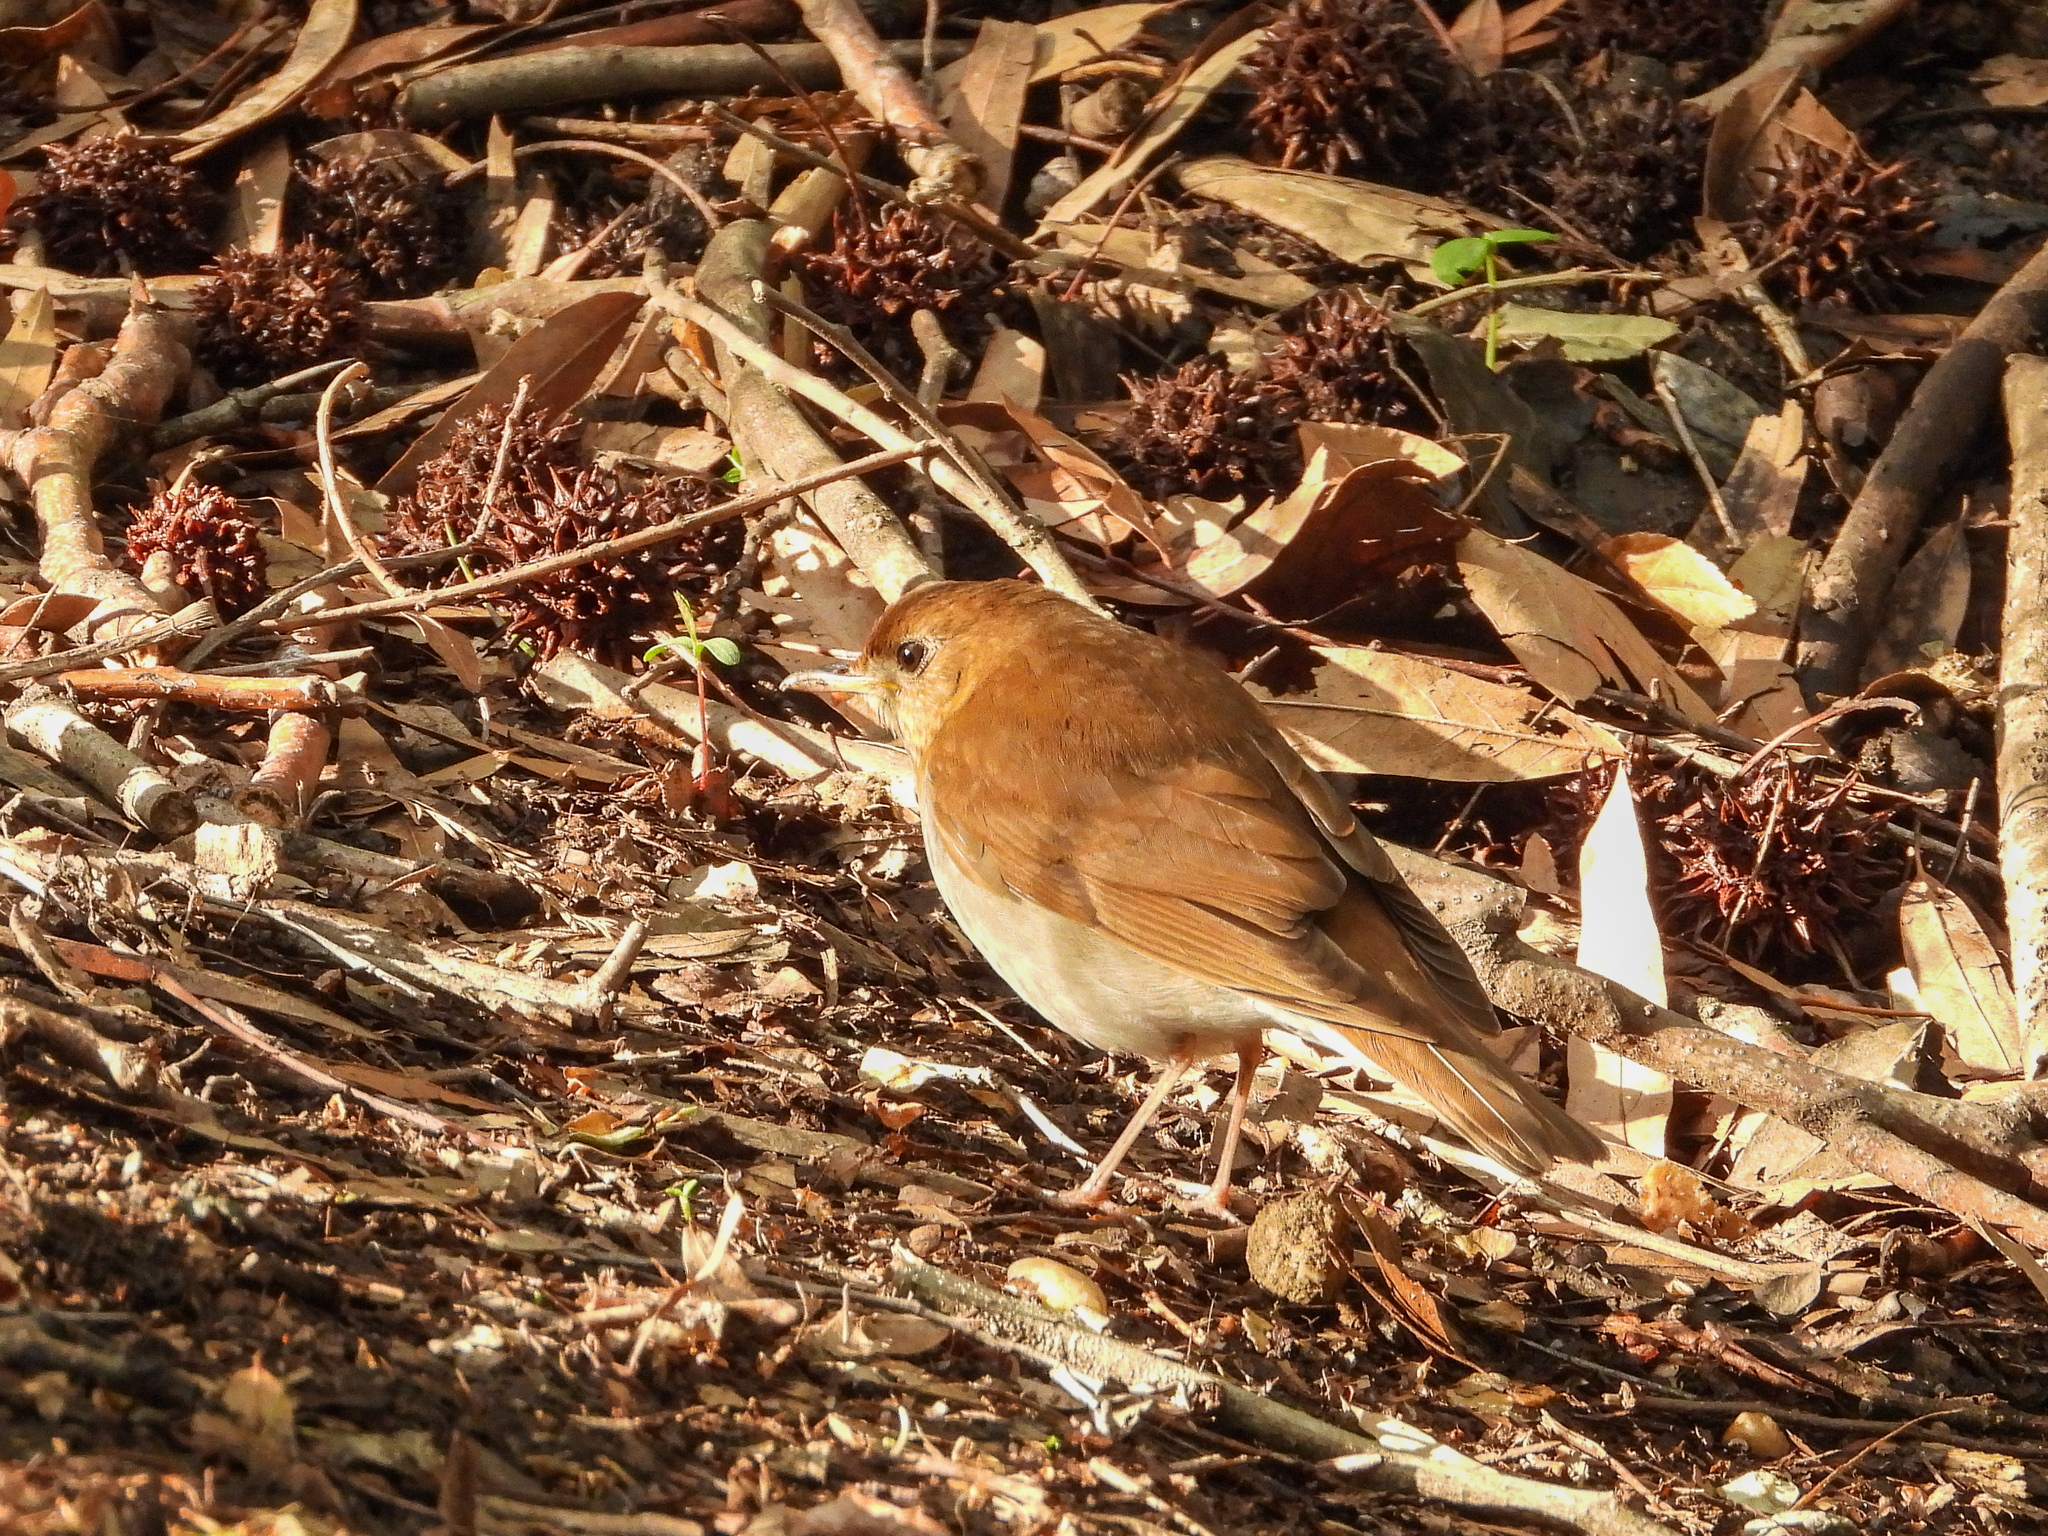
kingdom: Animalia
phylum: Chordata
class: Aves
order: Passeriformes
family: Turdidae
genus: Catharus
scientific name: Catharus fuscescens
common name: Veery
